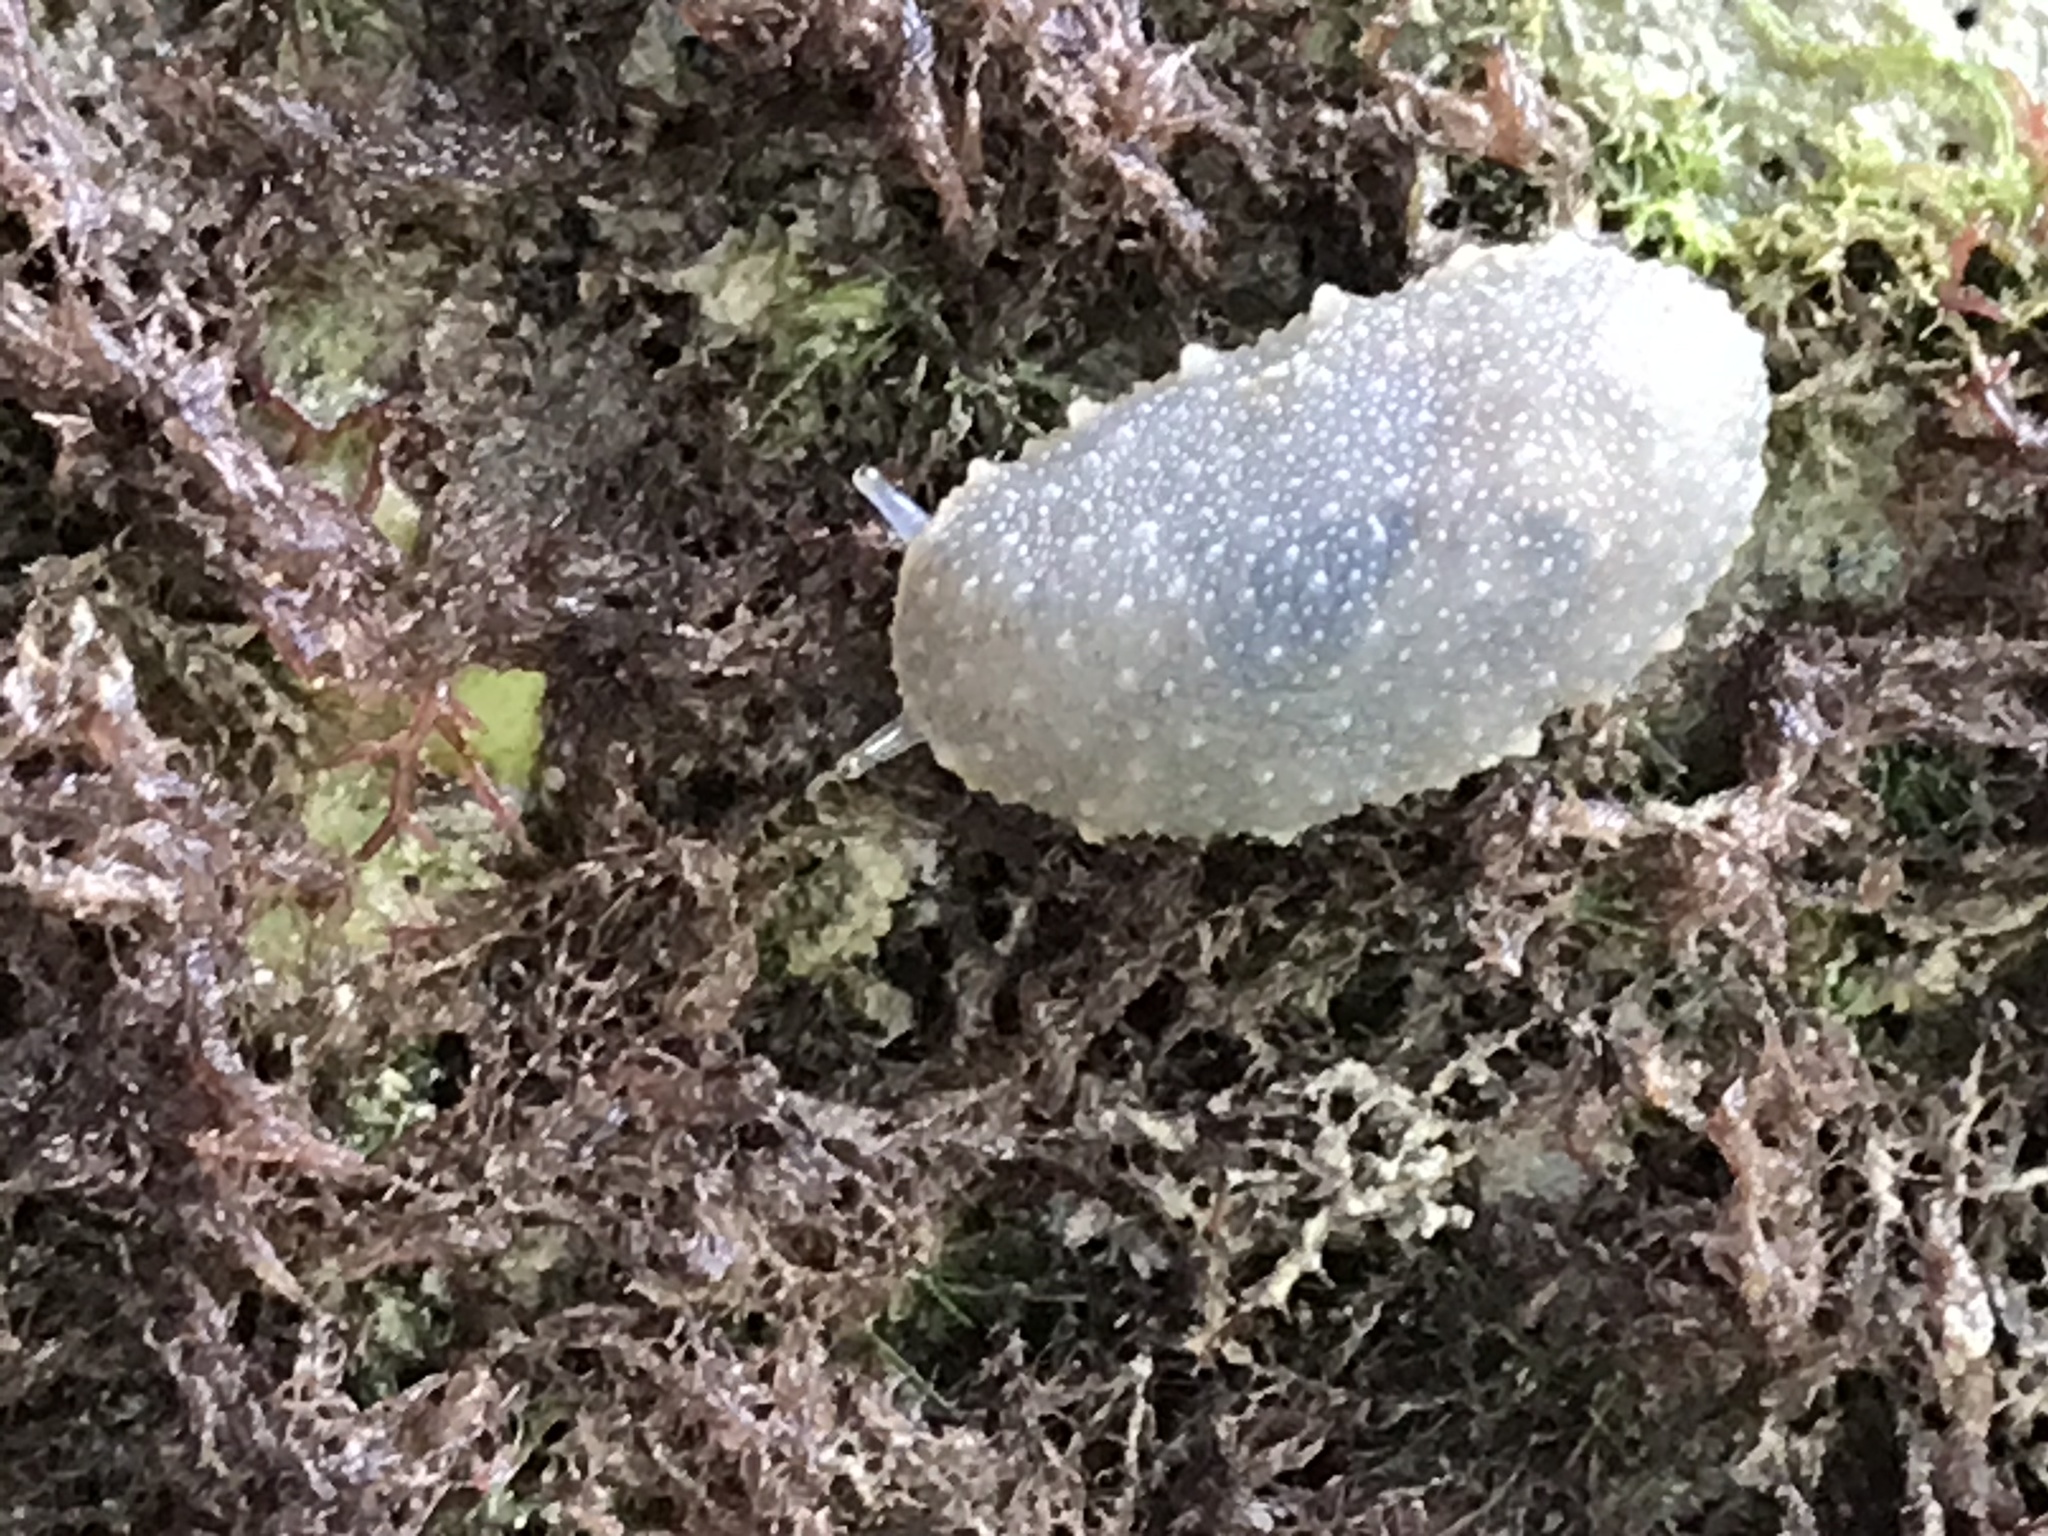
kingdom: Animalia
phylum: Mollusca
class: Gastropoda
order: Systellommatophora
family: Onchidiidae
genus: Onchidella
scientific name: Onchidella floridana
